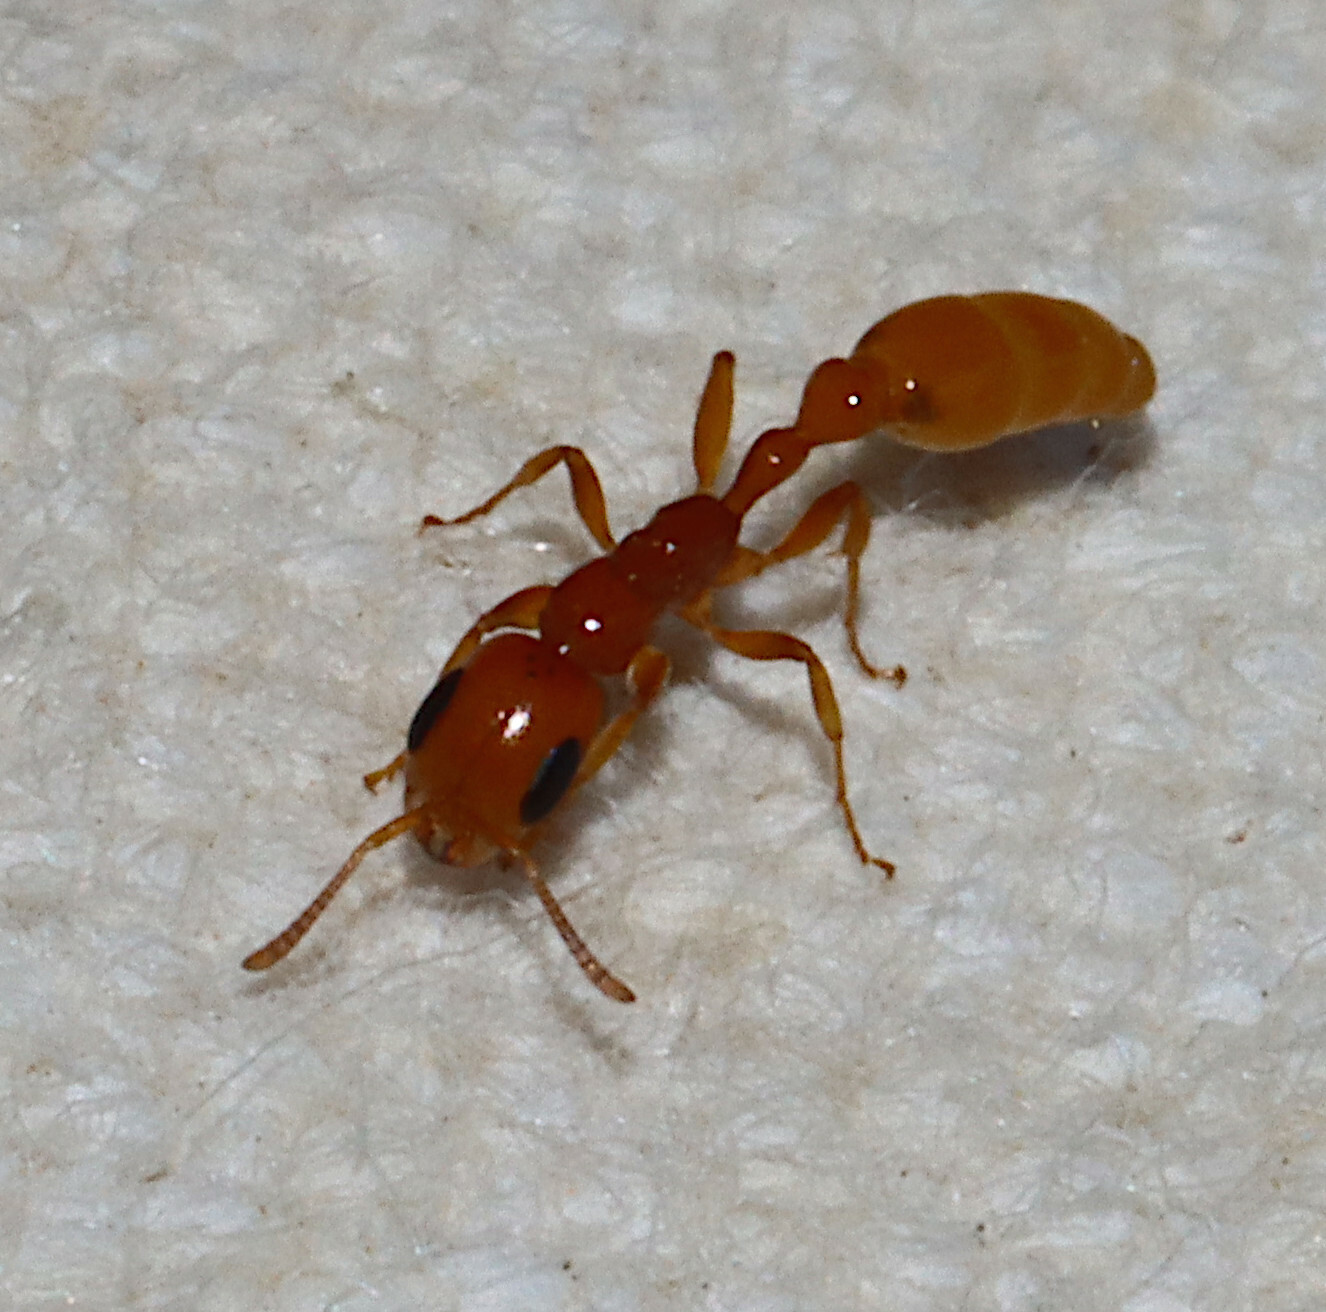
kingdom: Animalia
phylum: Arthropoda
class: Insecta
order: Hymenoptera
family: Formicidae
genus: Pseudomyrmex
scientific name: Pseudomyrmex pallidus
